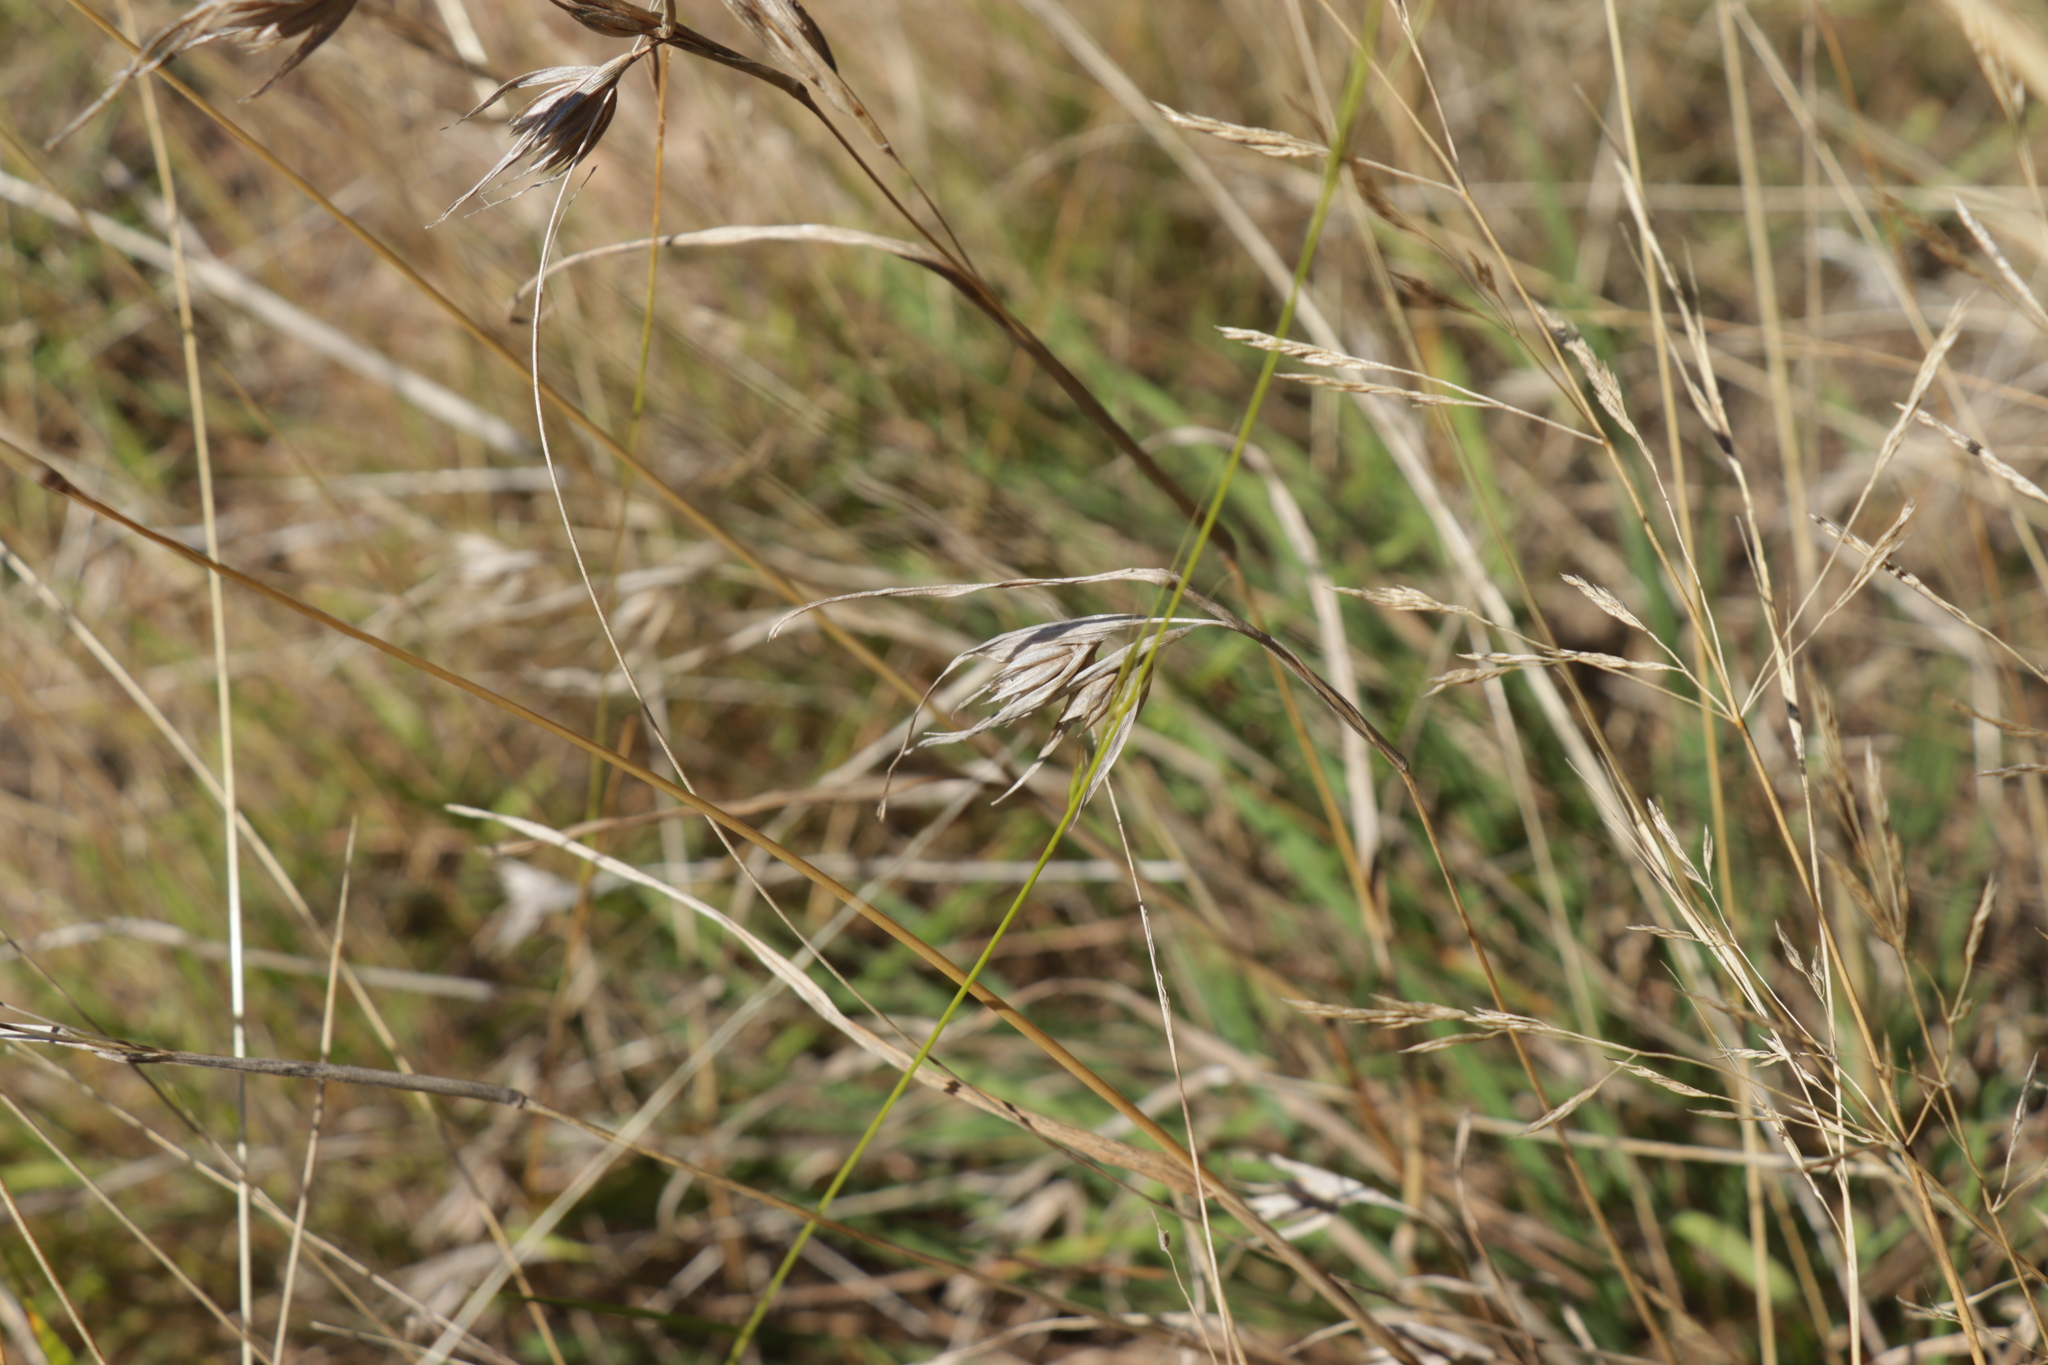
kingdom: Plantae
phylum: Tracheophyta
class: Liliopsida
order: Poales
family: Poaceae
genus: Themeda
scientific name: Themeda triandra
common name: Kangaroo grass
